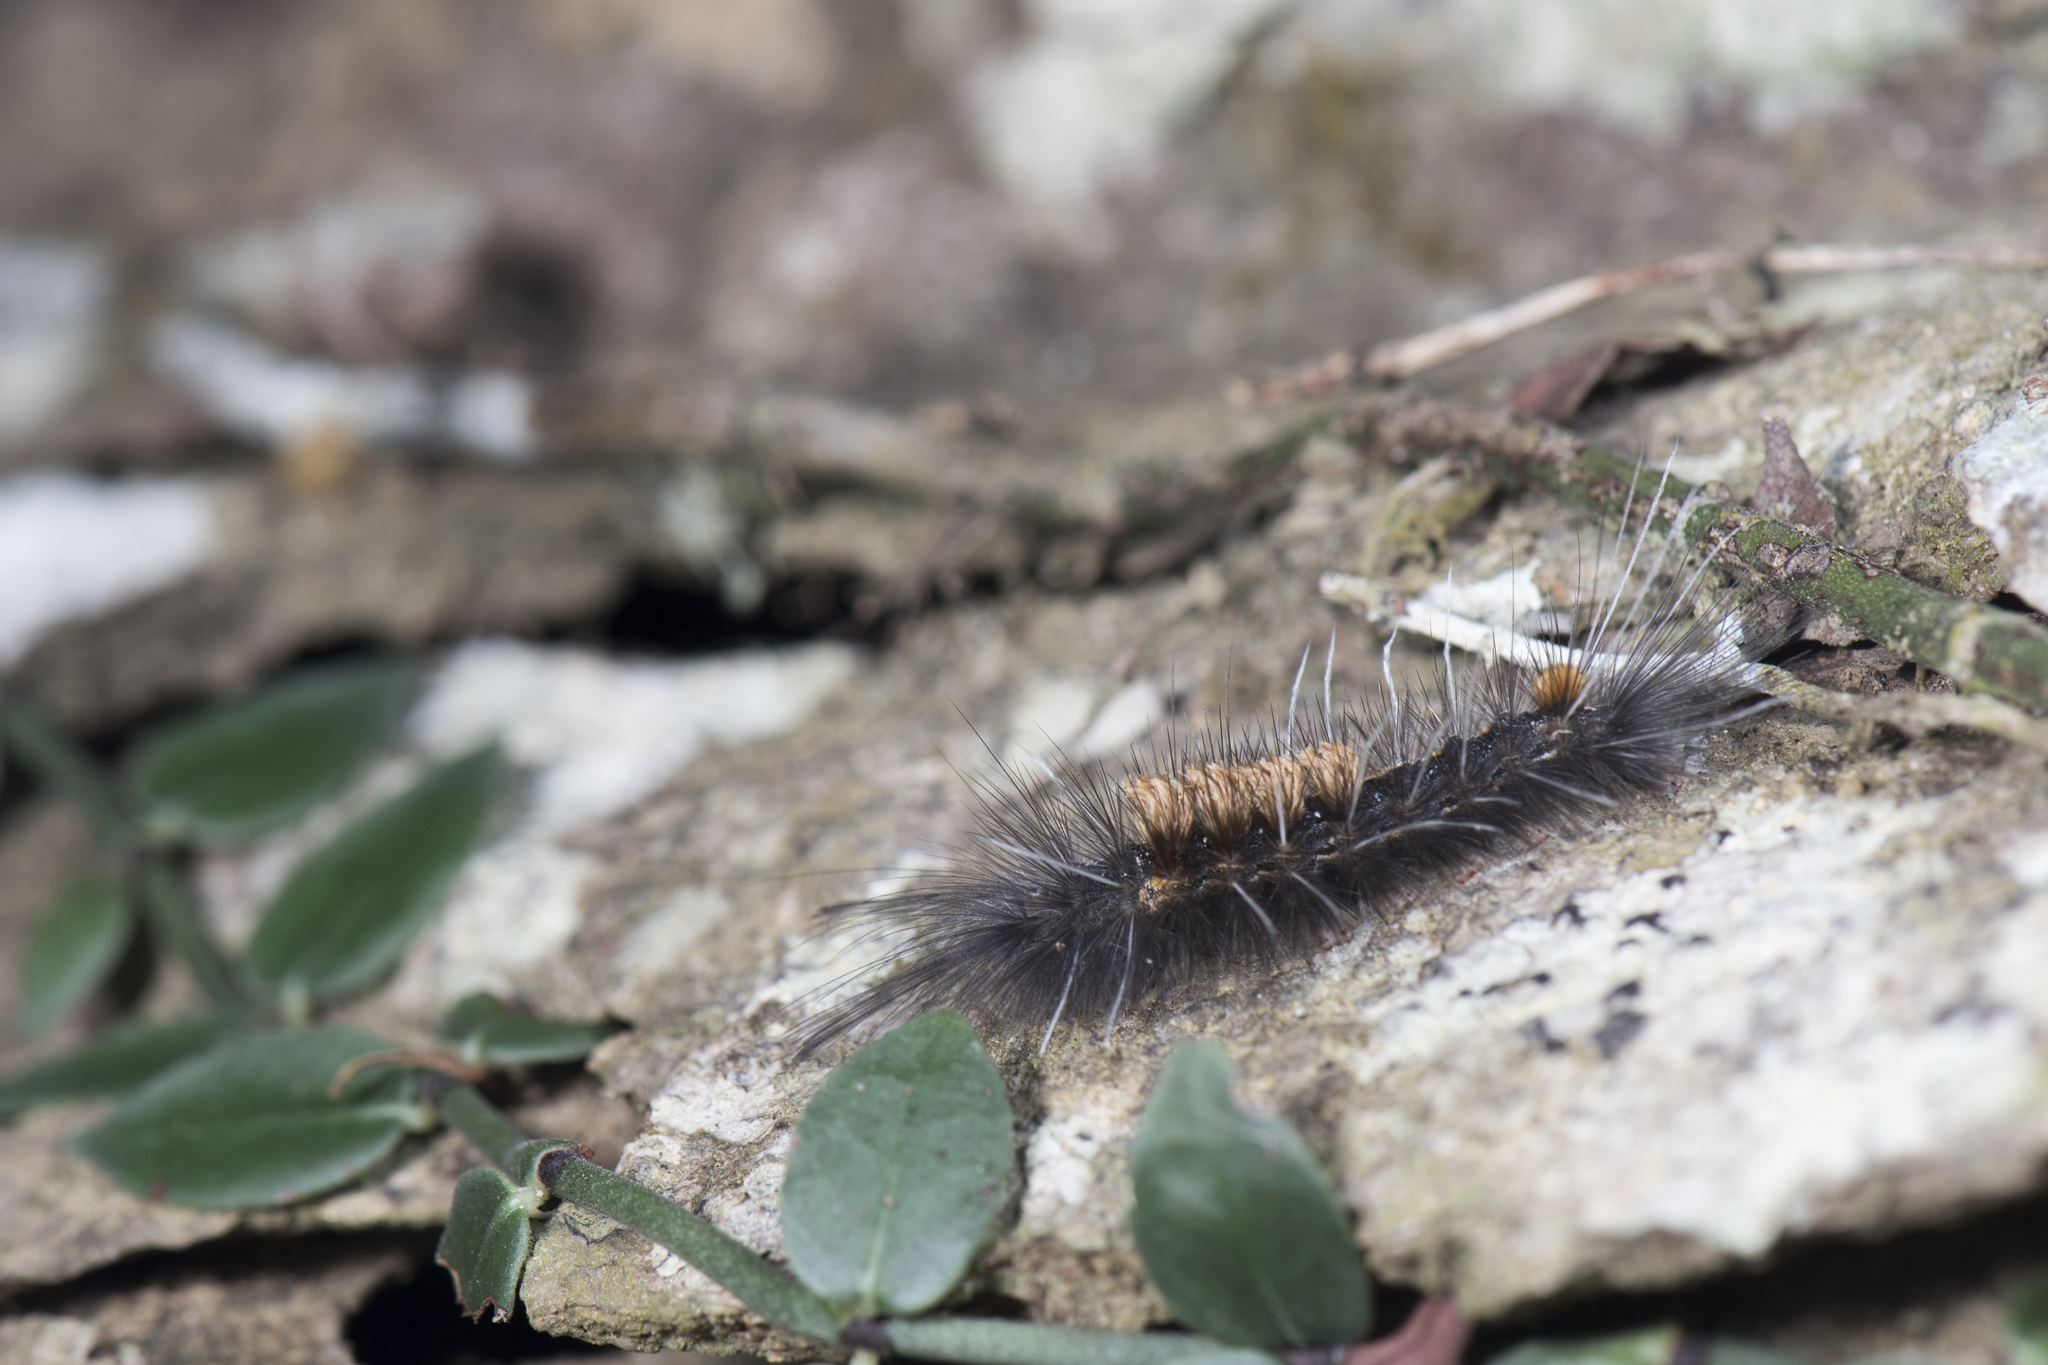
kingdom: Animalia
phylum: Arthropoda
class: Insecta
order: Lepidoptera
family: Erebidae
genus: Ilema
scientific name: Ilema kosemponica
